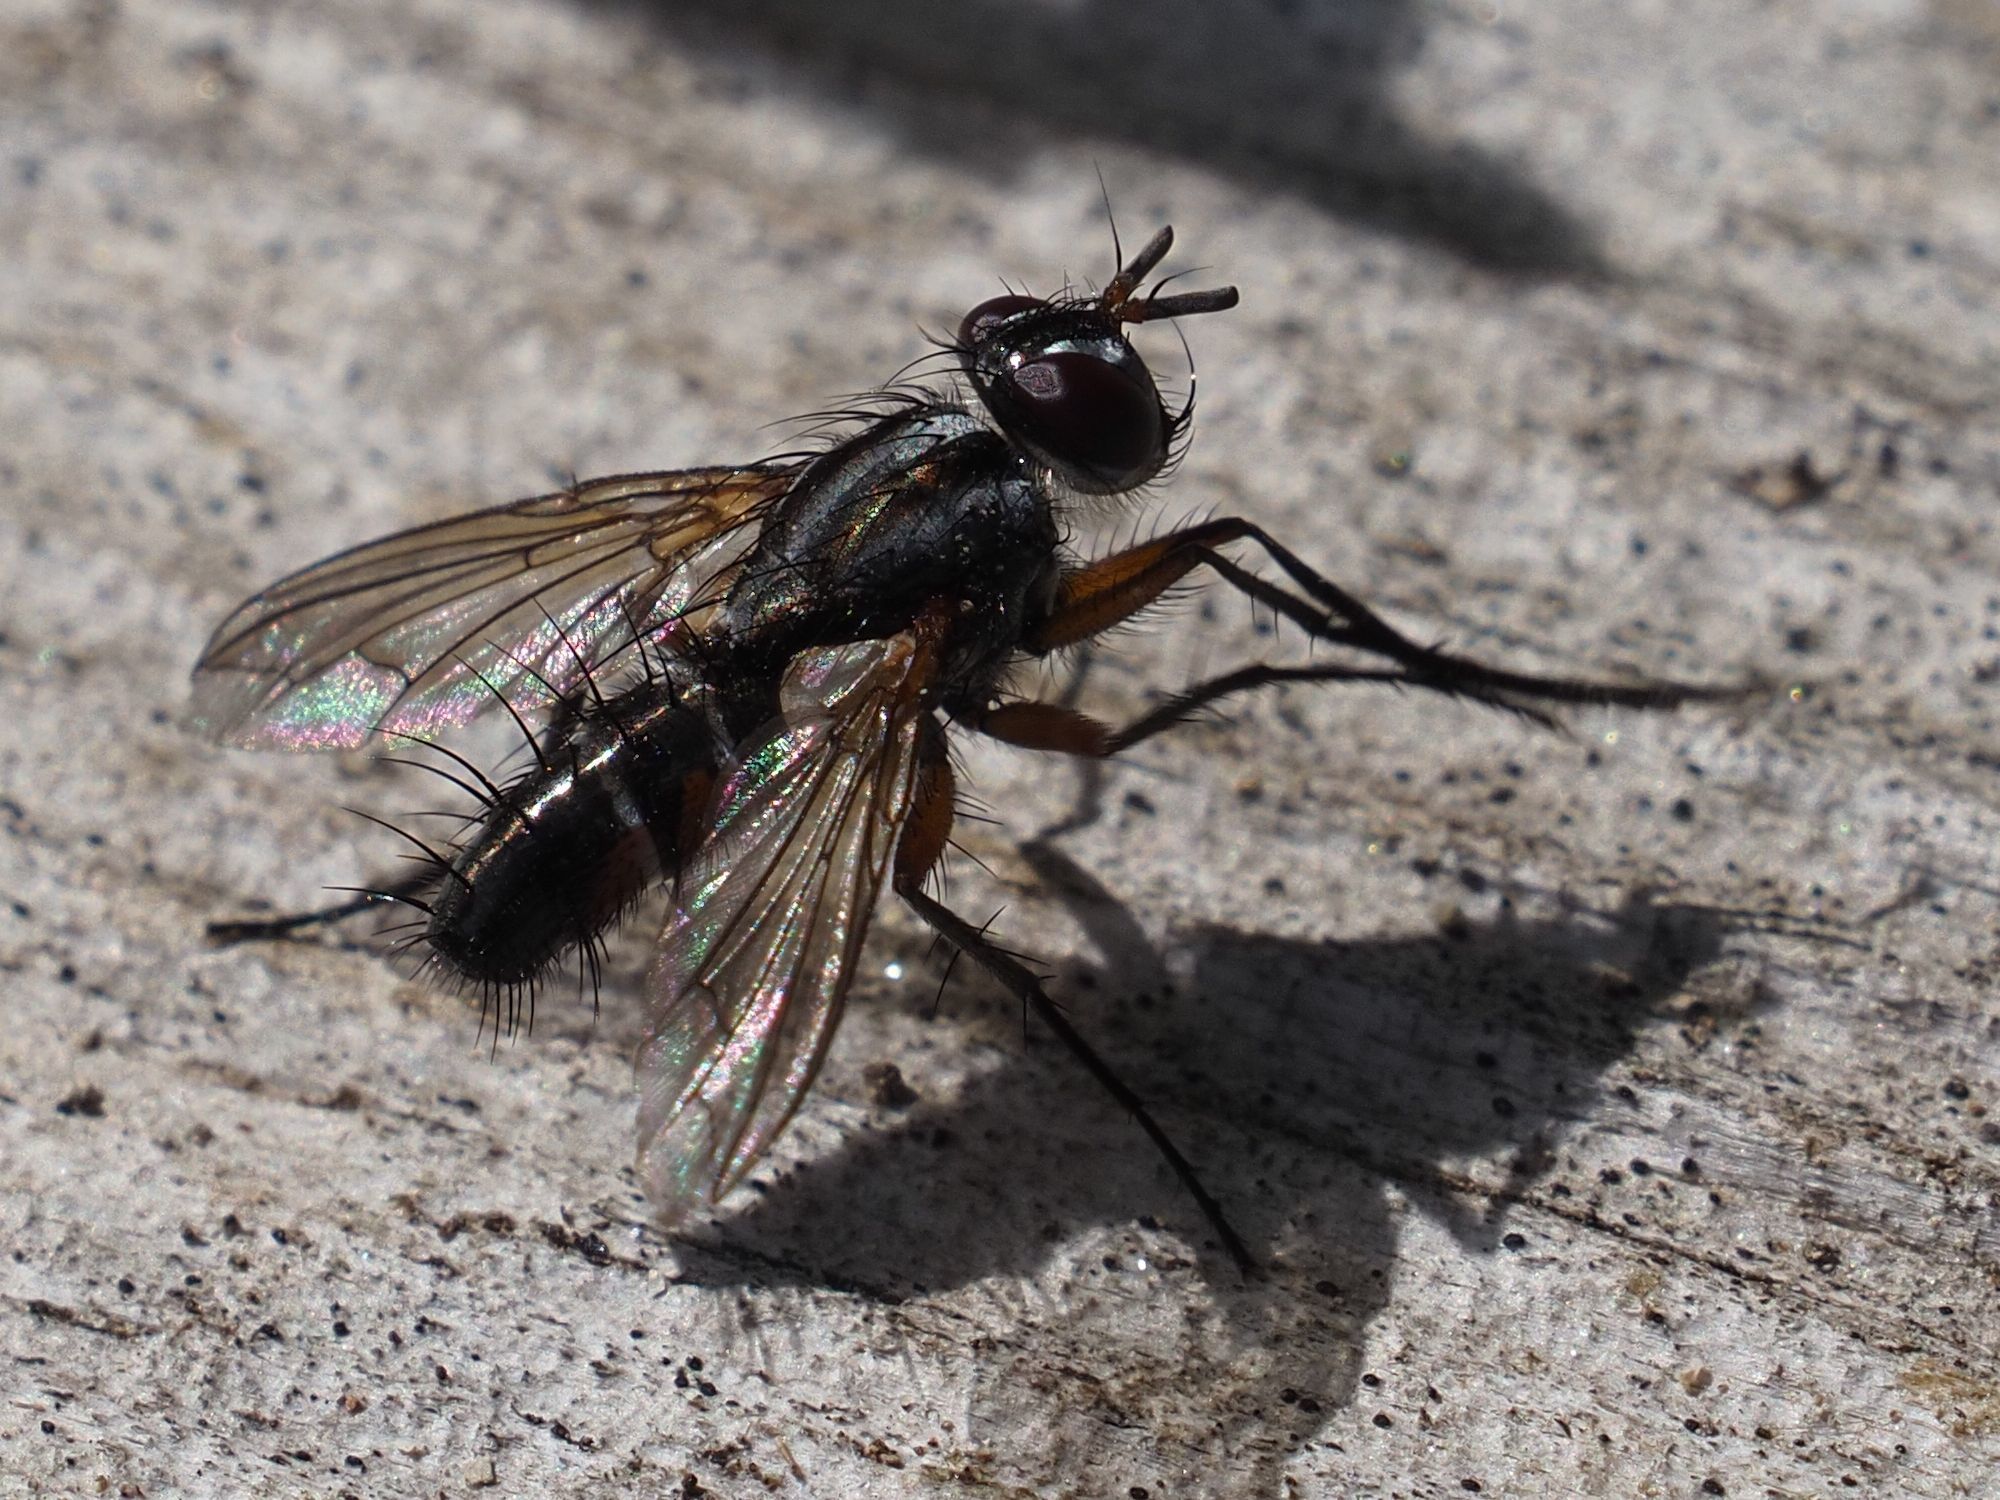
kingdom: Animalia
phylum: Arthropoda
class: Insecta
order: Diptera
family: Tachinidae
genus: Mintho
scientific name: Mintho rufiventris
